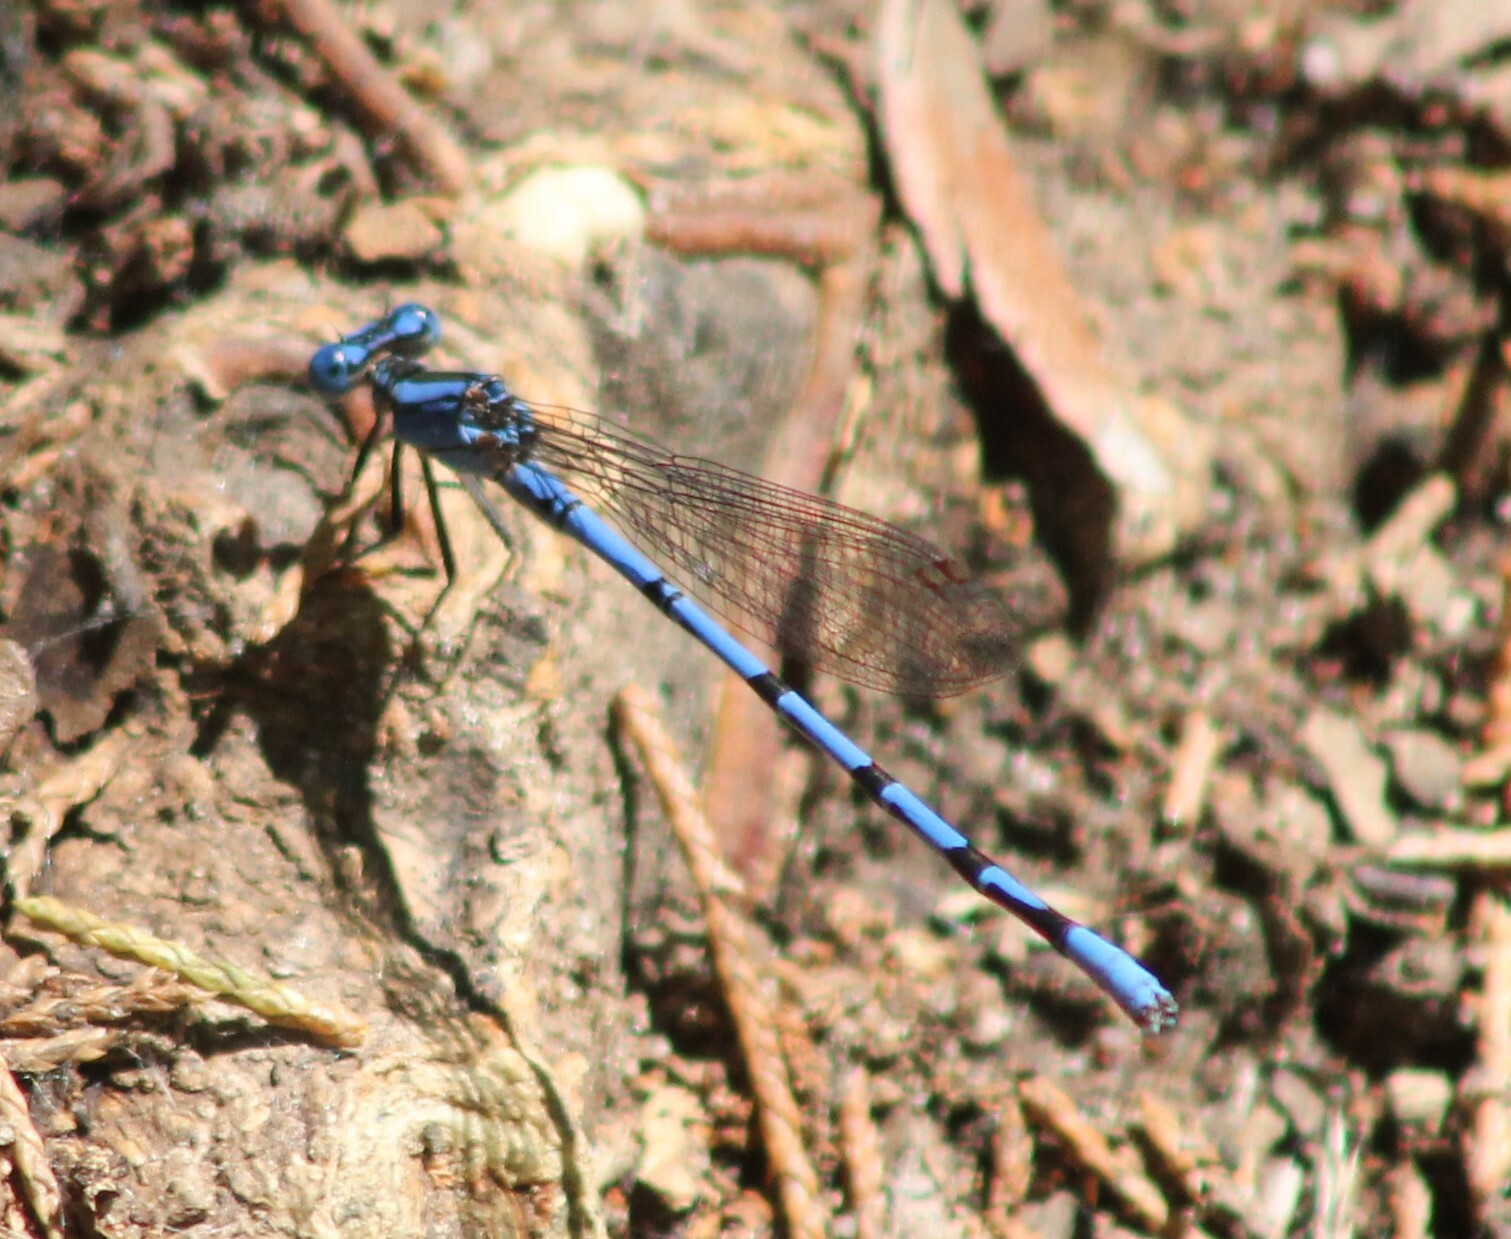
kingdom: Animalia
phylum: Arthropoda
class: Insecta
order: Odonata
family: Coenagrionidae
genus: Argia
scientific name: Argia funebris
